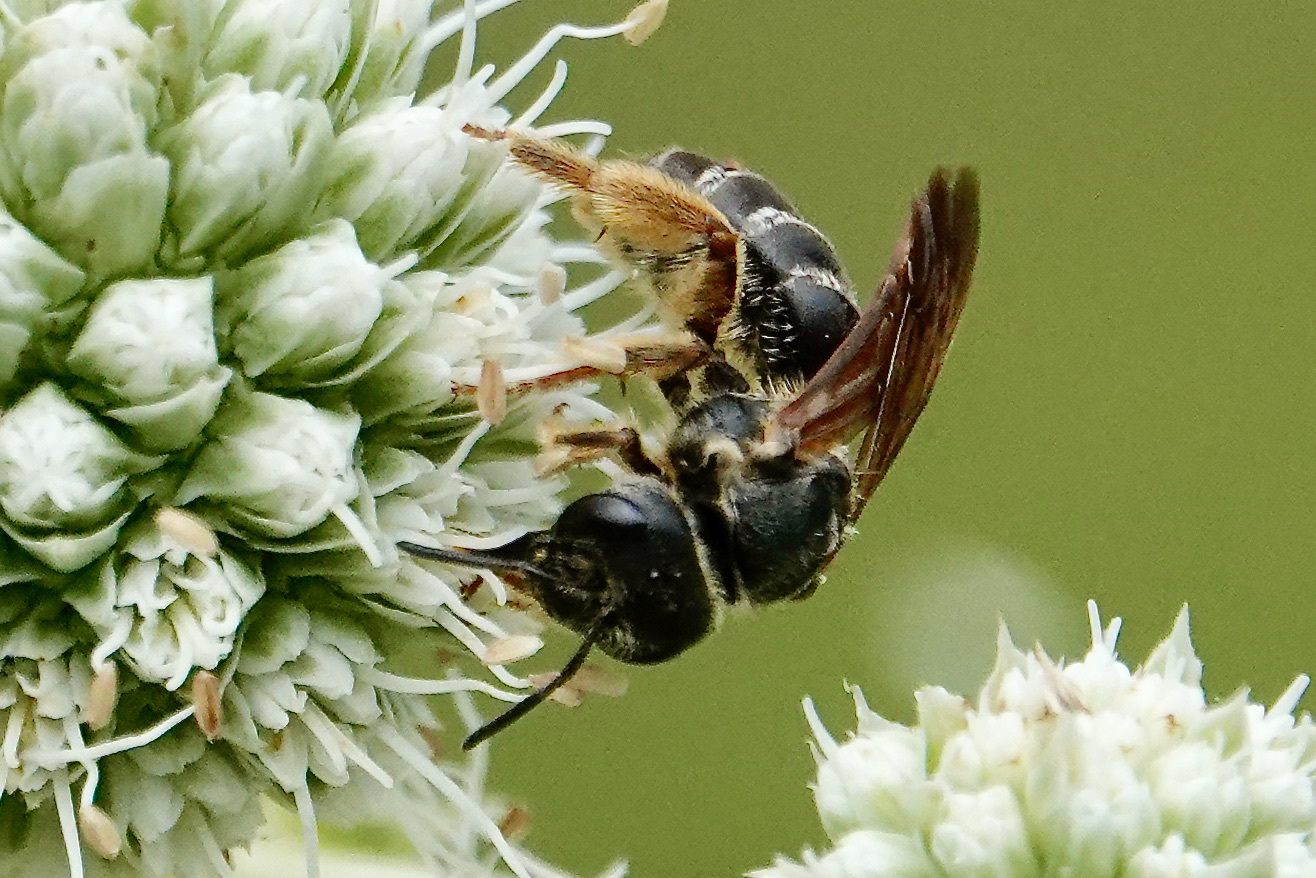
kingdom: Animalia
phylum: Arthropoda
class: Insecta
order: Hymenoptera
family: Halictidae
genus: Halictus
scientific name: Halictus parallelus
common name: Parallel-striped sweat bee
